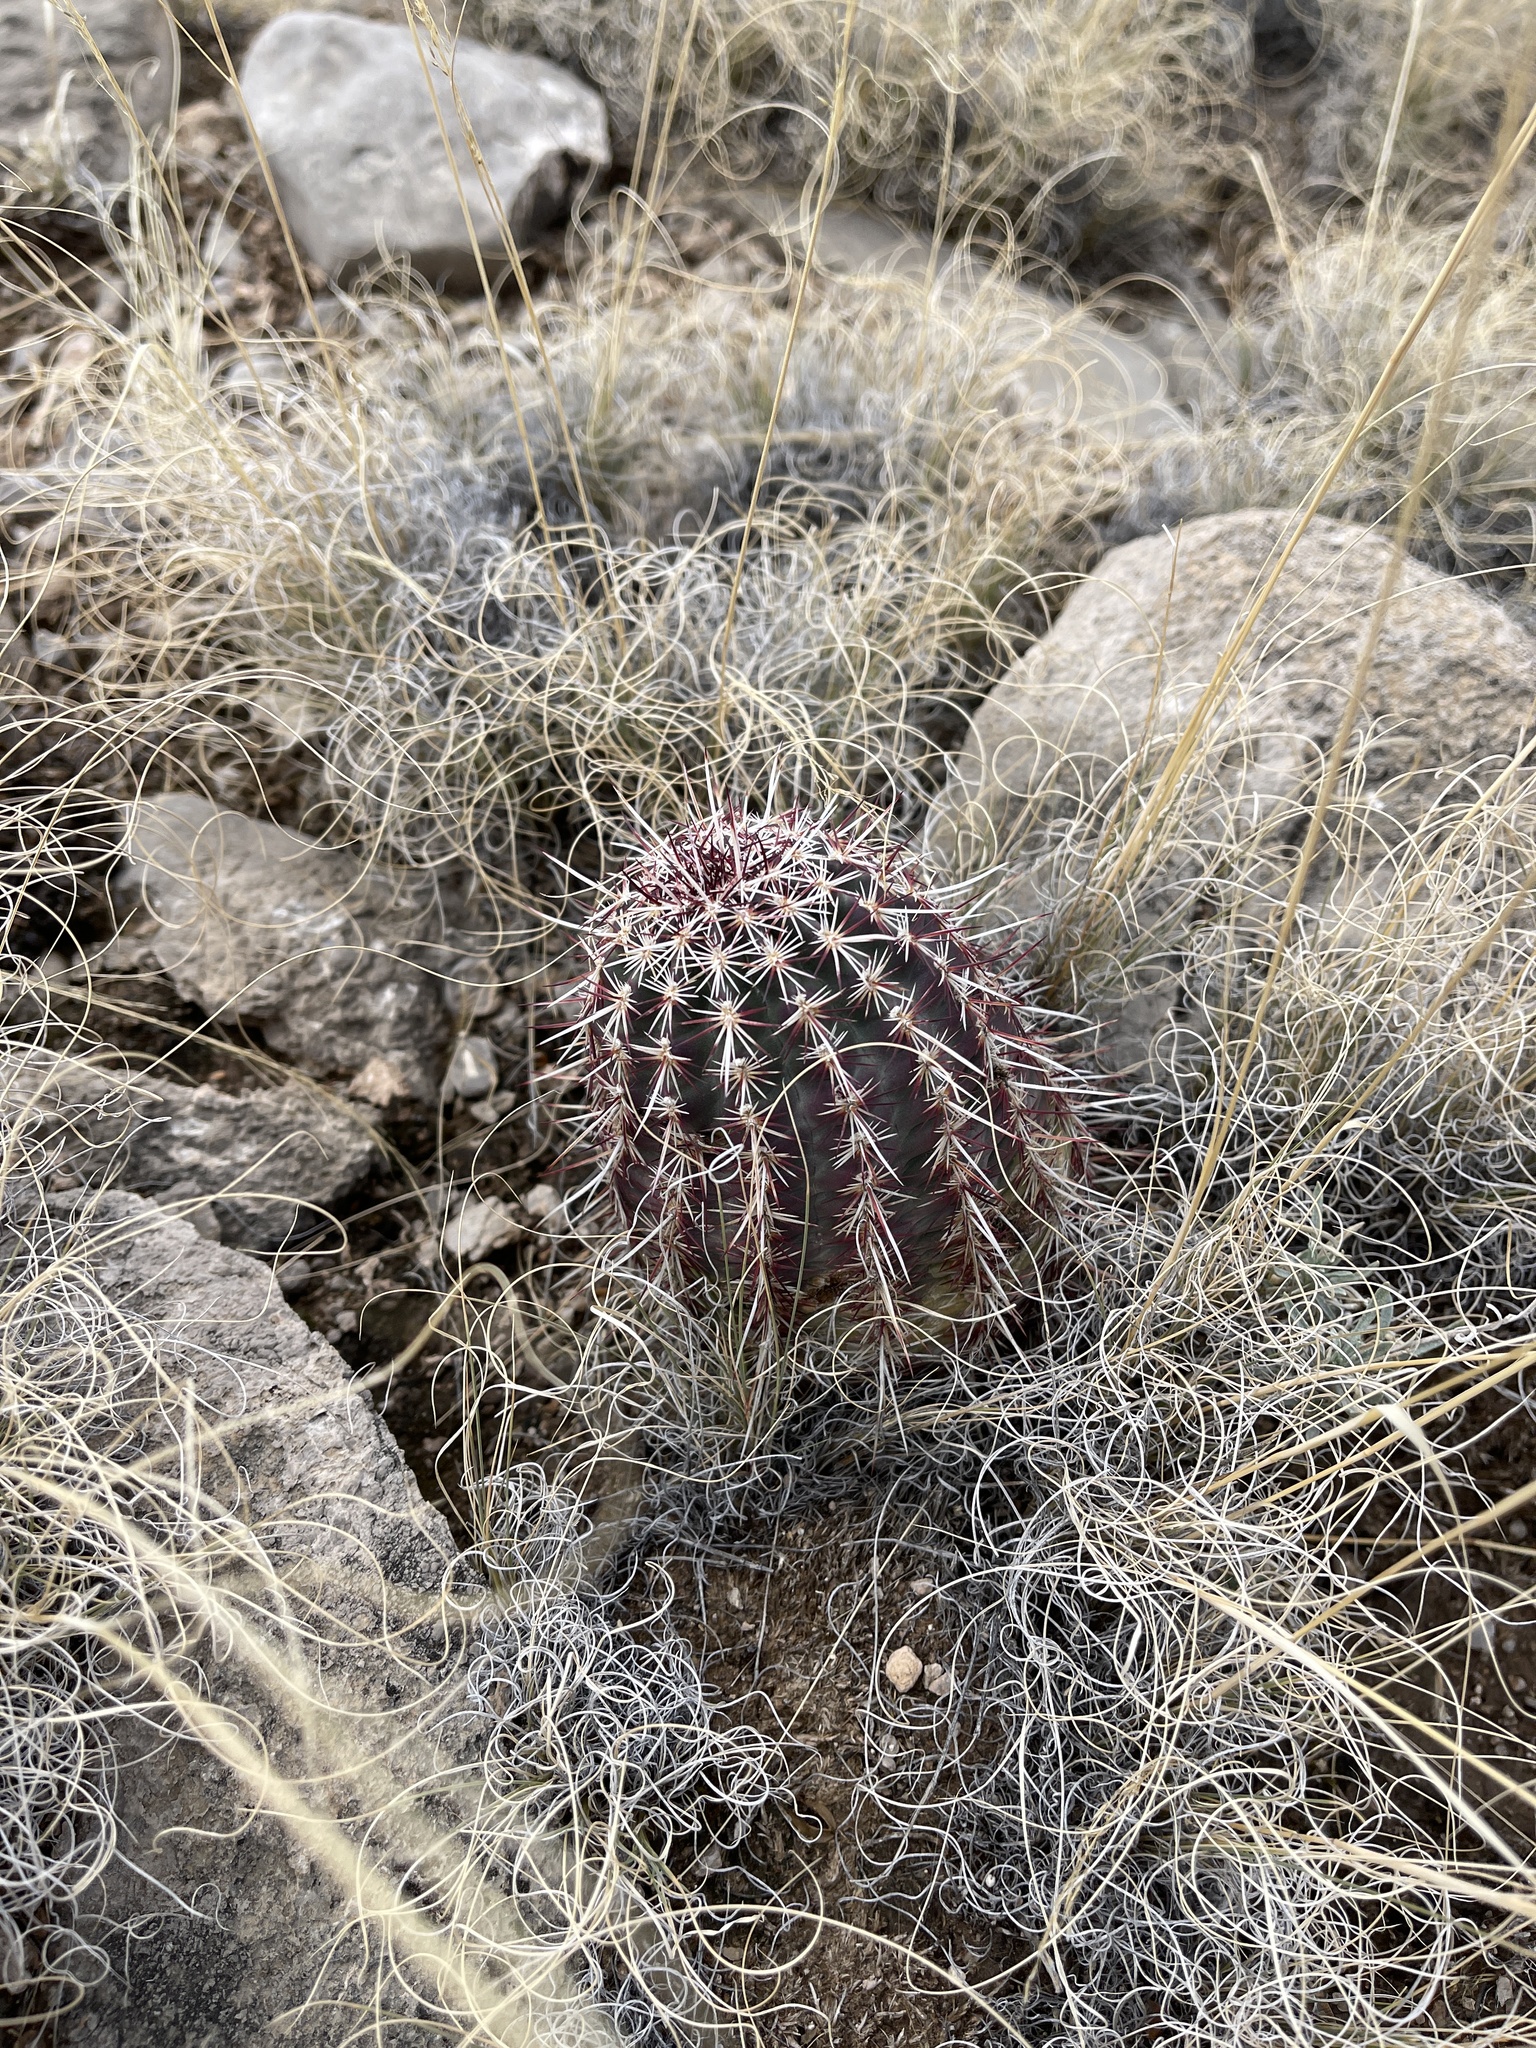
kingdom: Plantae
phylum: Tracheophyta
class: Magnoliopsida
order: Caryophyllales
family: Cactaceae
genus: Echinocereus
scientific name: Echinocereus viridiflorus
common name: Nylon hedgehog cactus
